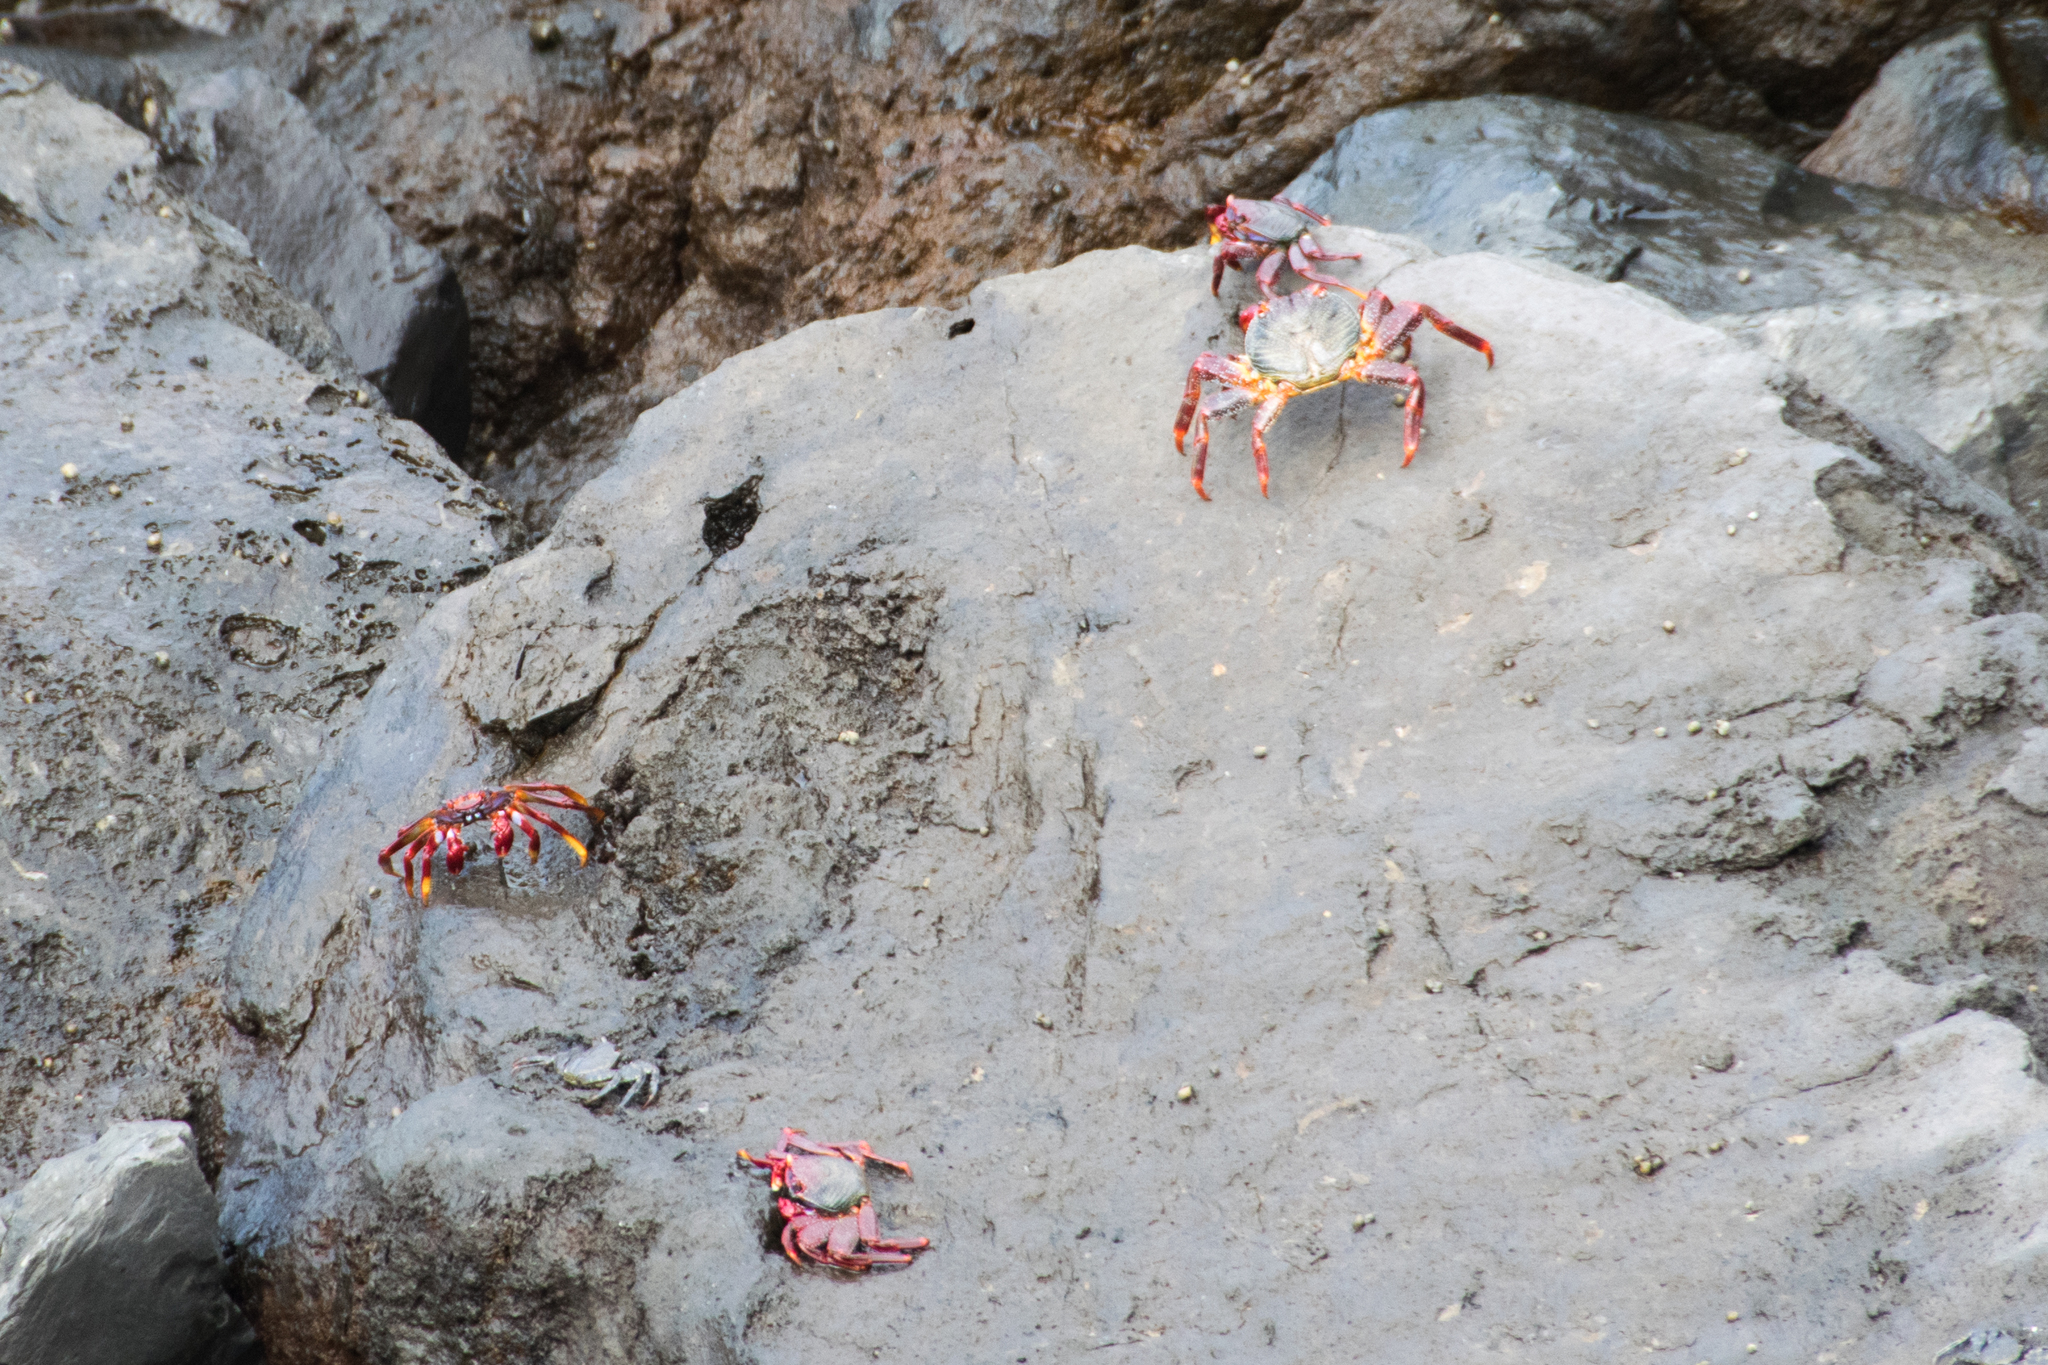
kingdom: Animalia
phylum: Arthropoda
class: Malacostraca
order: Decapoda
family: Grapsidae
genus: Grapsus
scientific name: Grapsus adscensionis
